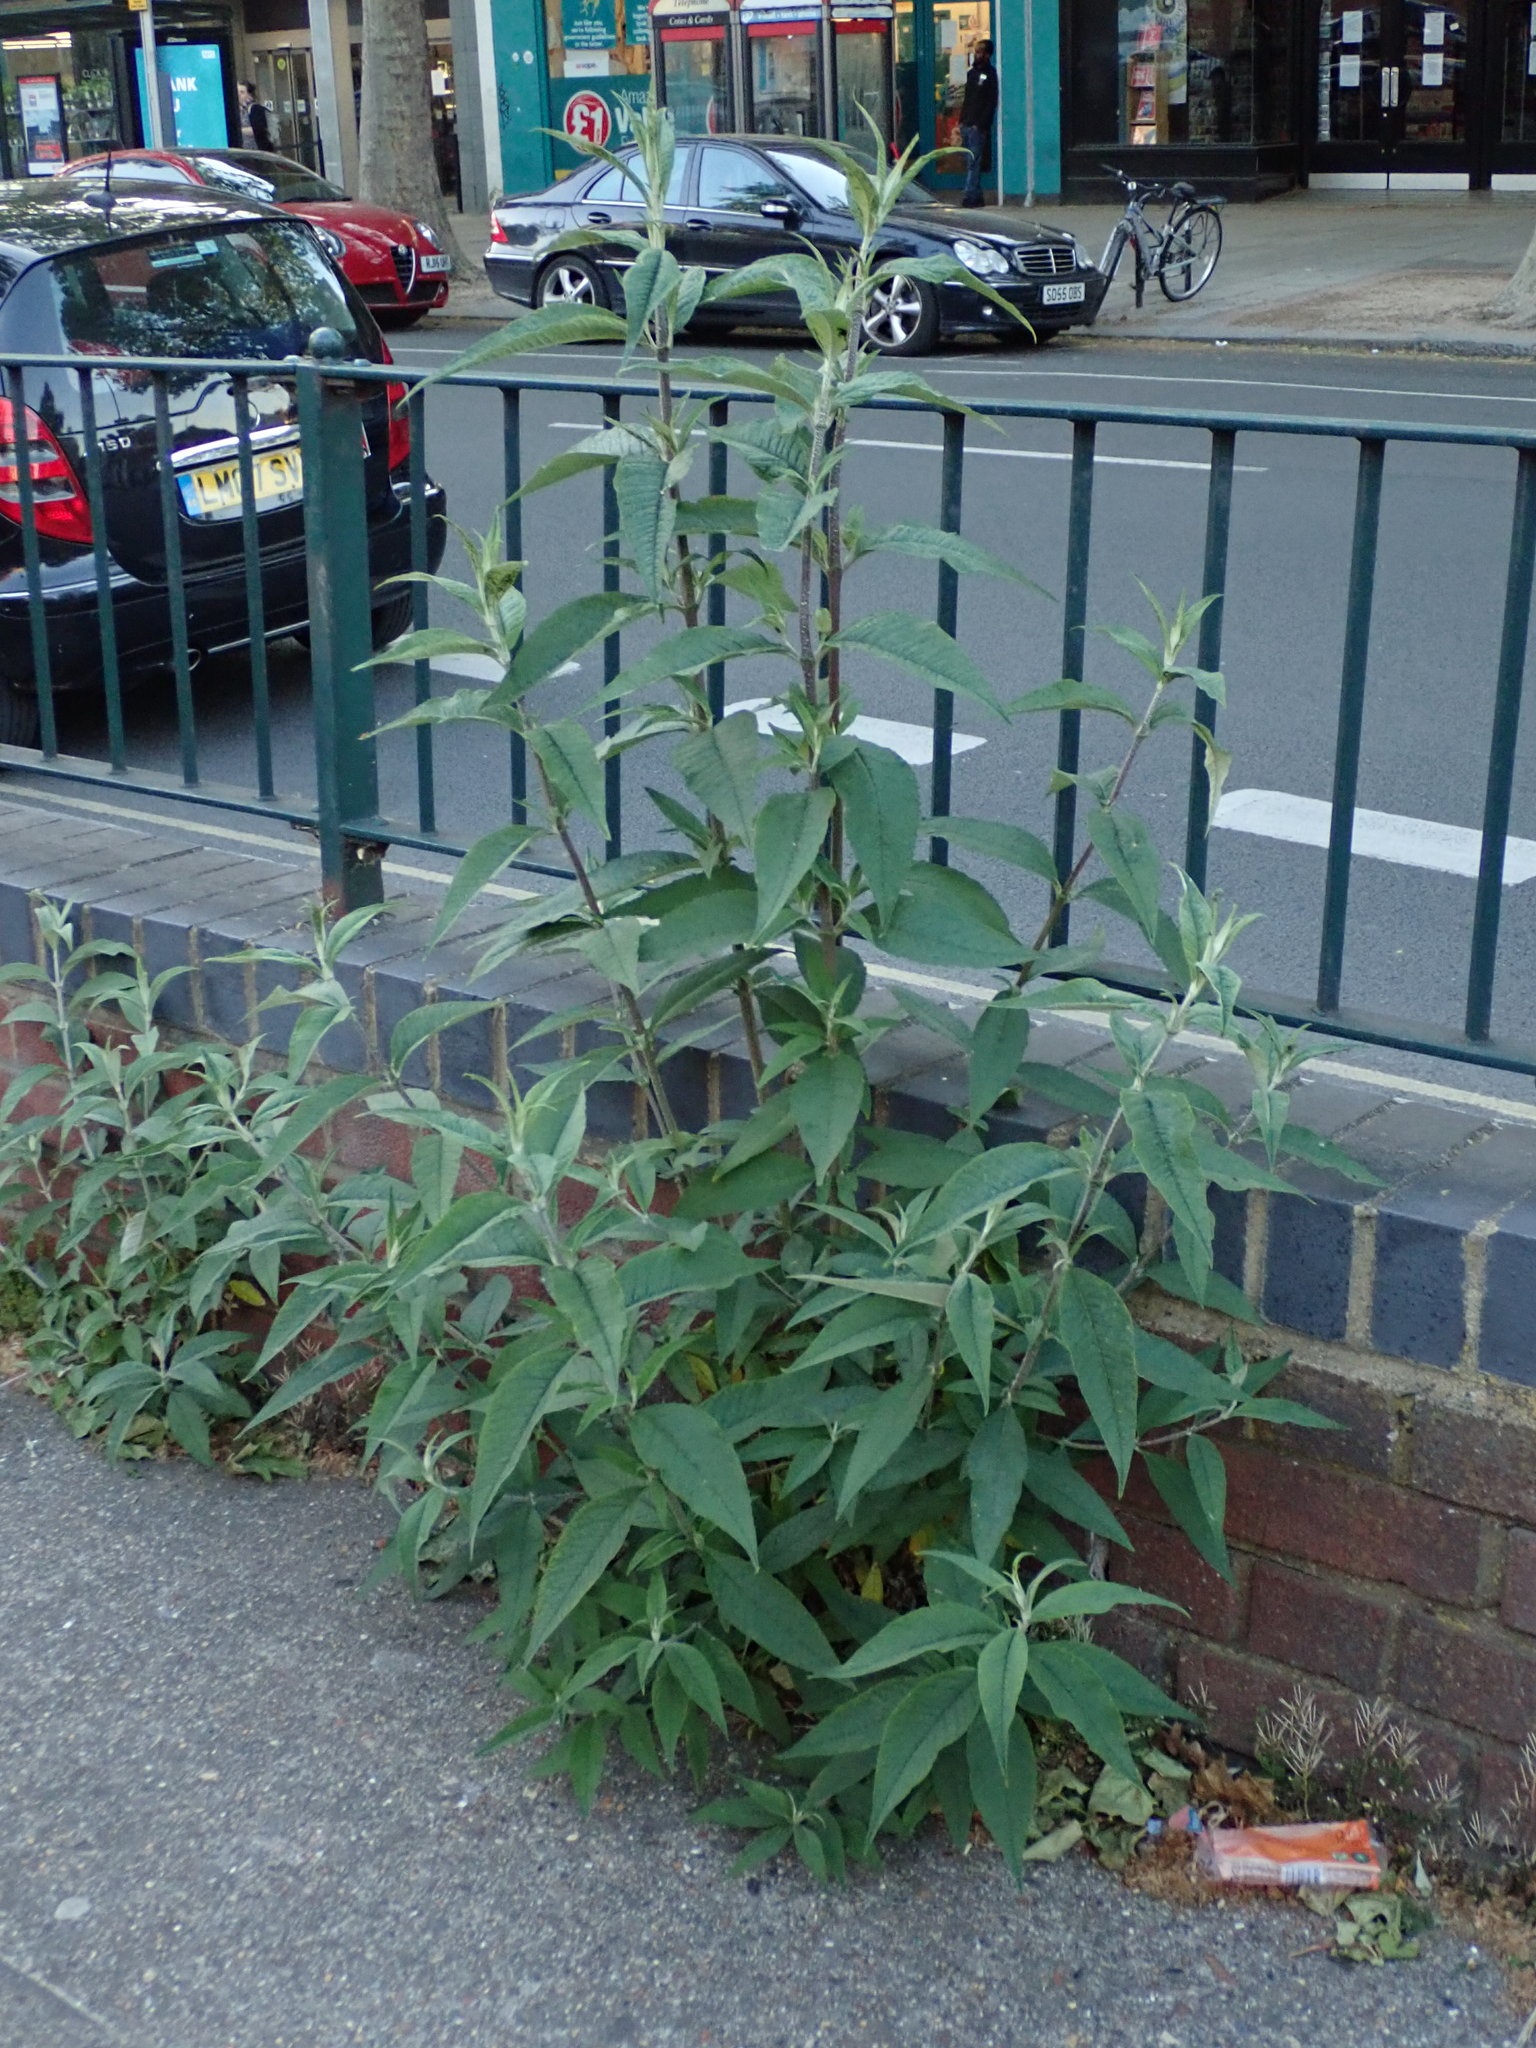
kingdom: Plantae
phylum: Tracheophyta
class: Magnoliopsida
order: Lamiales
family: Scrophulariaceae
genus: Buddleja
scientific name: Buddleja davidii
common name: Butterfly-bush
